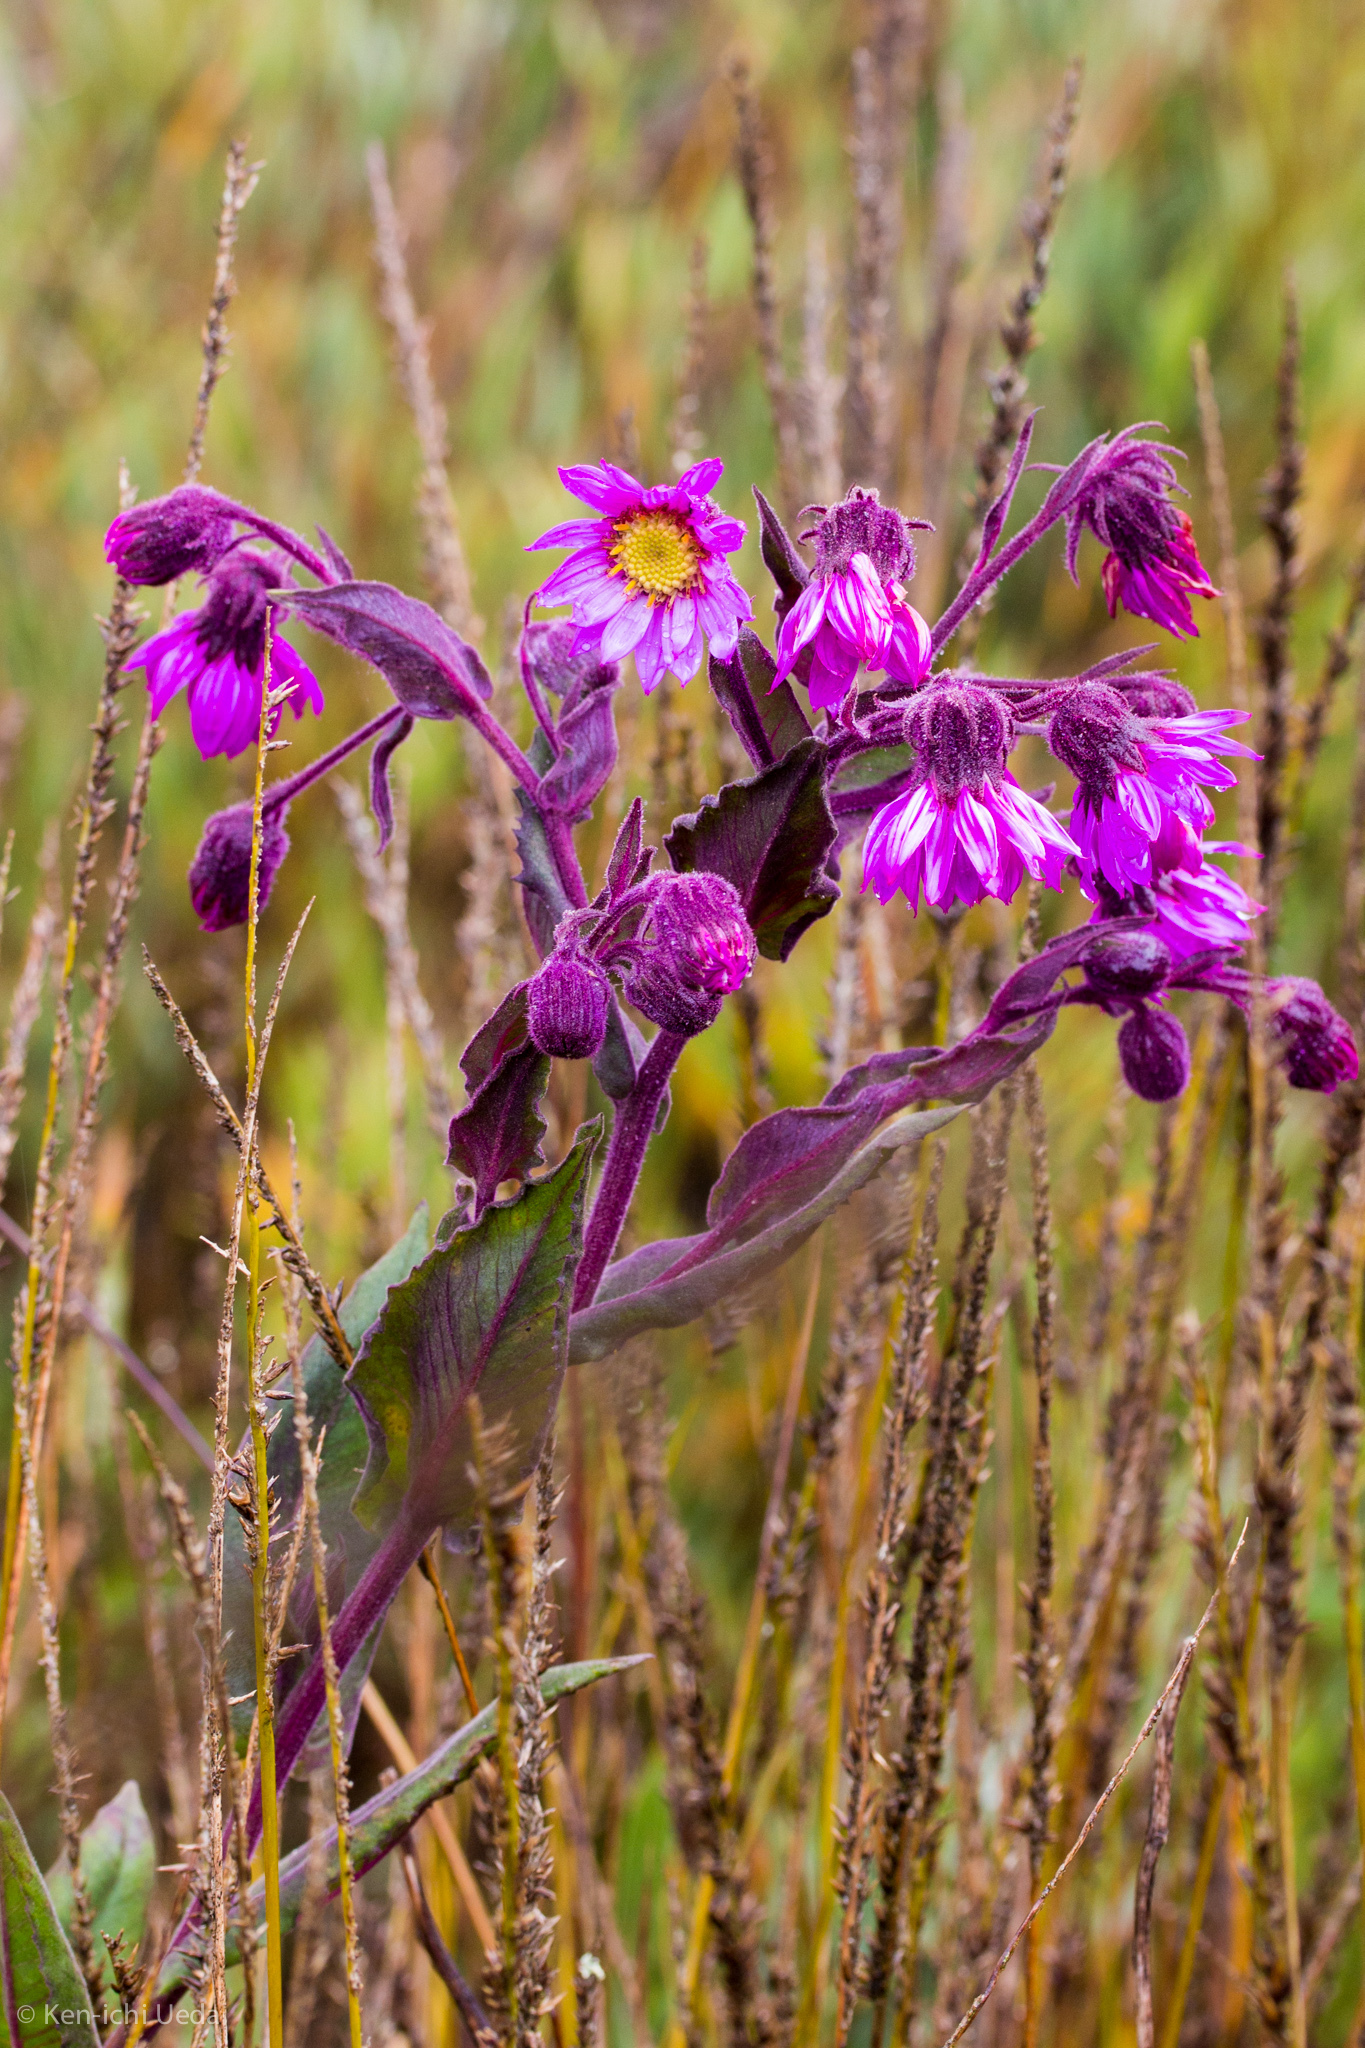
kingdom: Plantae
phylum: Tracheophyta
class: Magnoliopsida
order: Asterales
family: Asteraceae
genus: Senecio
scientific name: Senecio formosoides
